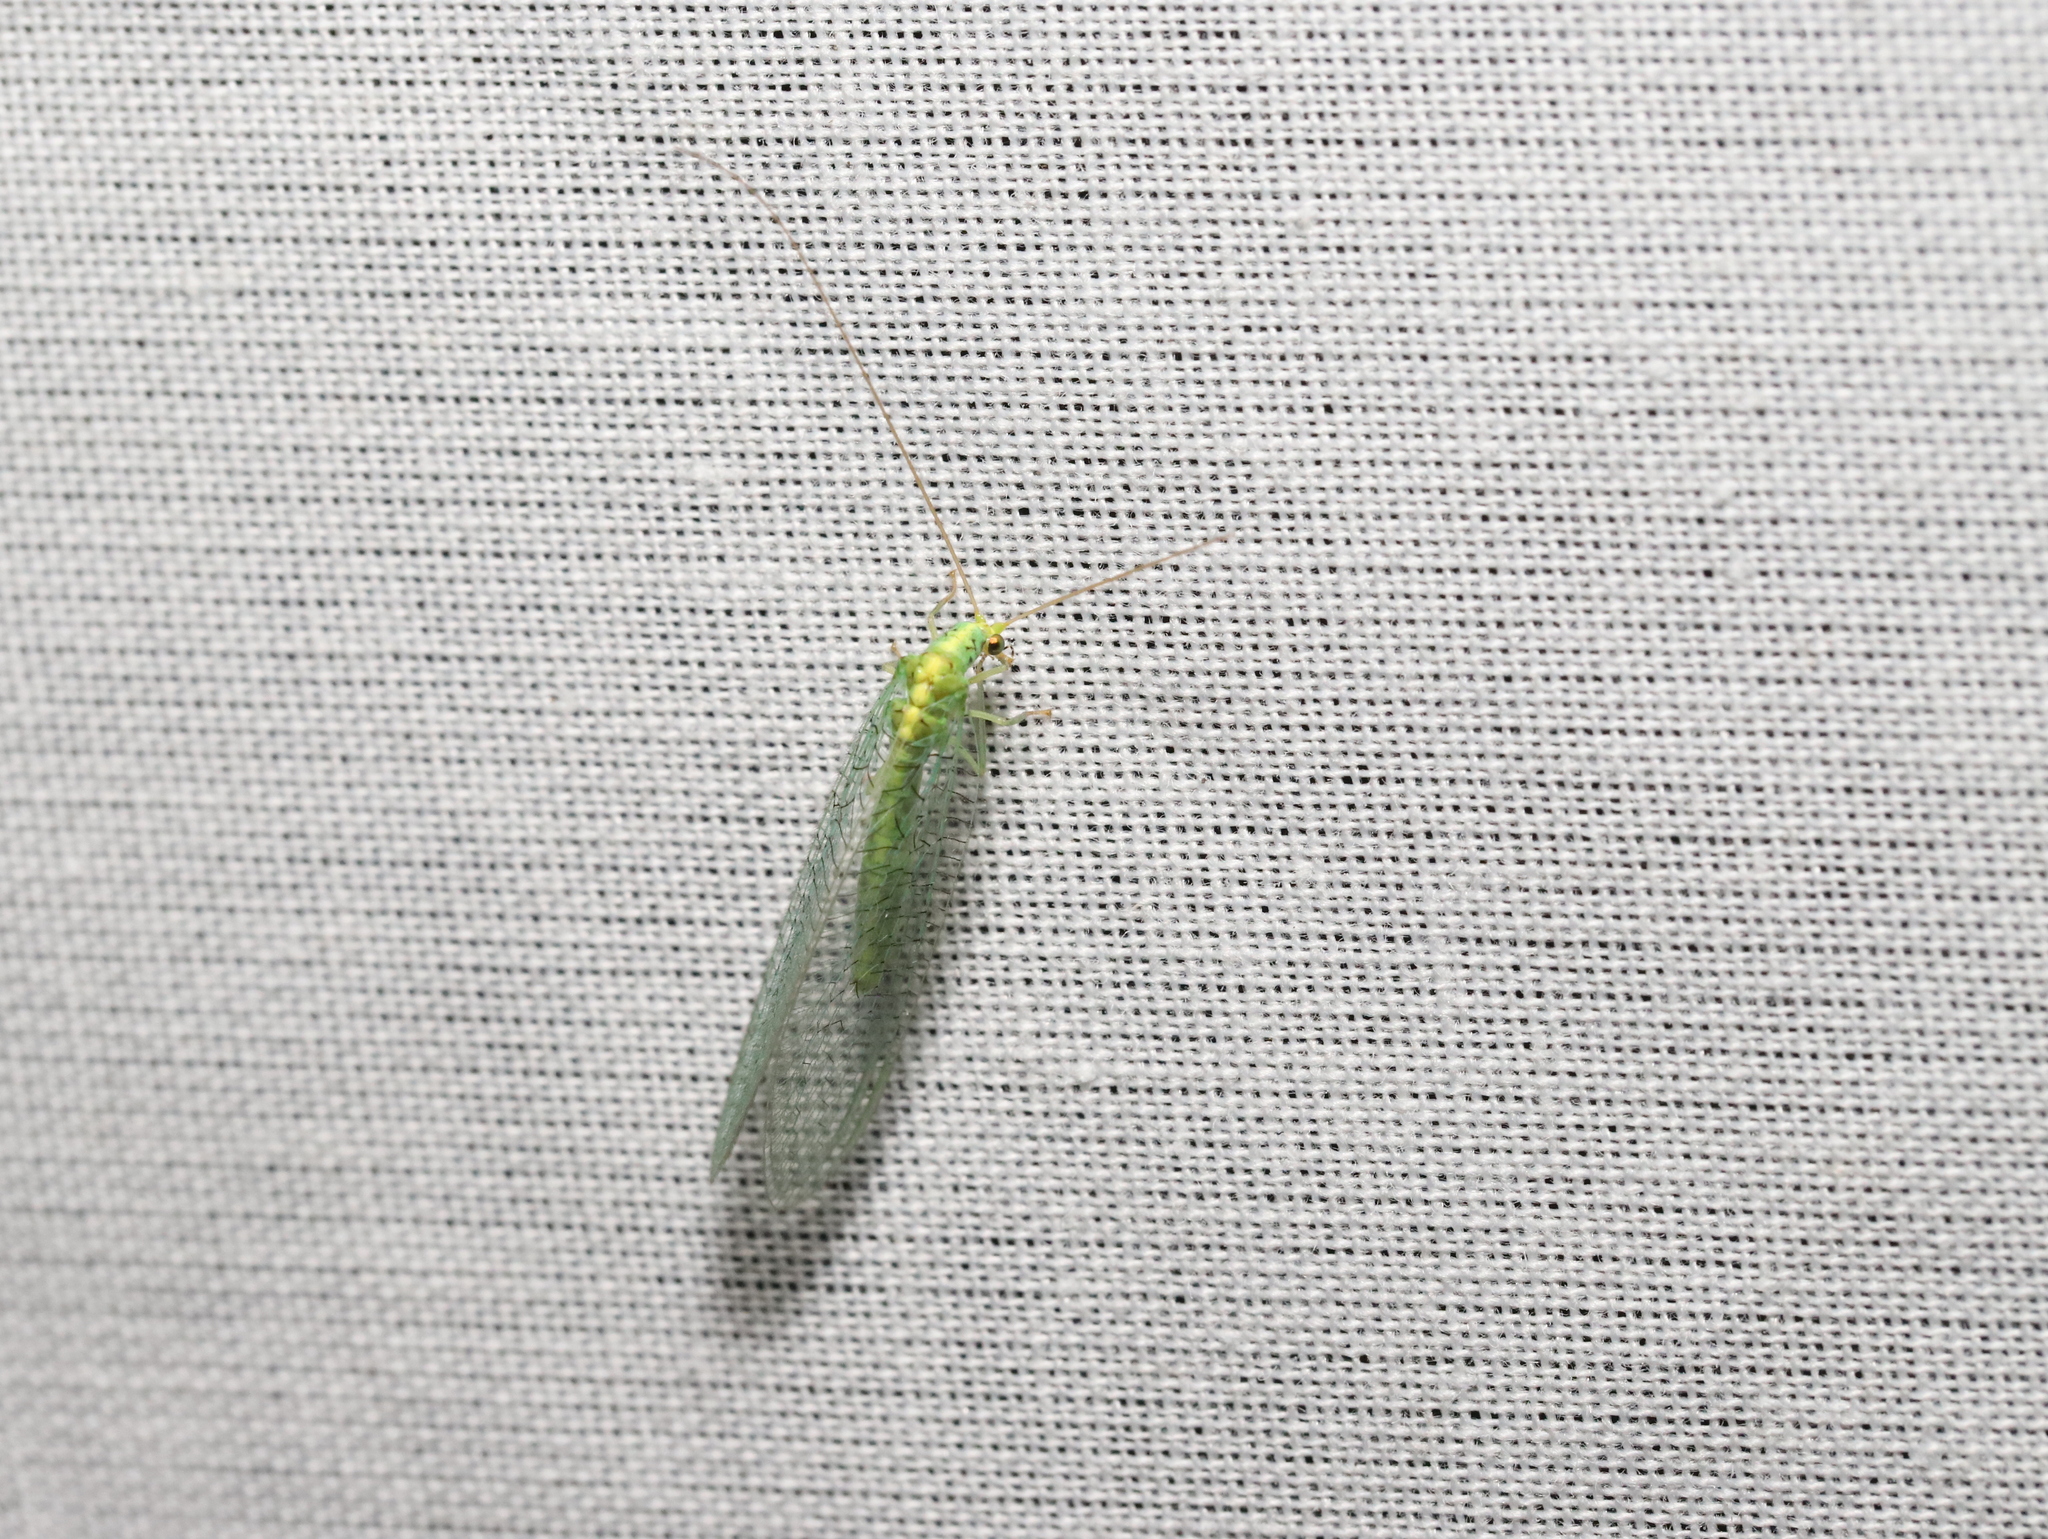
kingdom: Animalia
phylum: Arthropoda
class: Insecta
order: Neuroptera
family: Chrysopidae
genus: Pseudomallada
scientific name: Pseudomallada edwardsi
